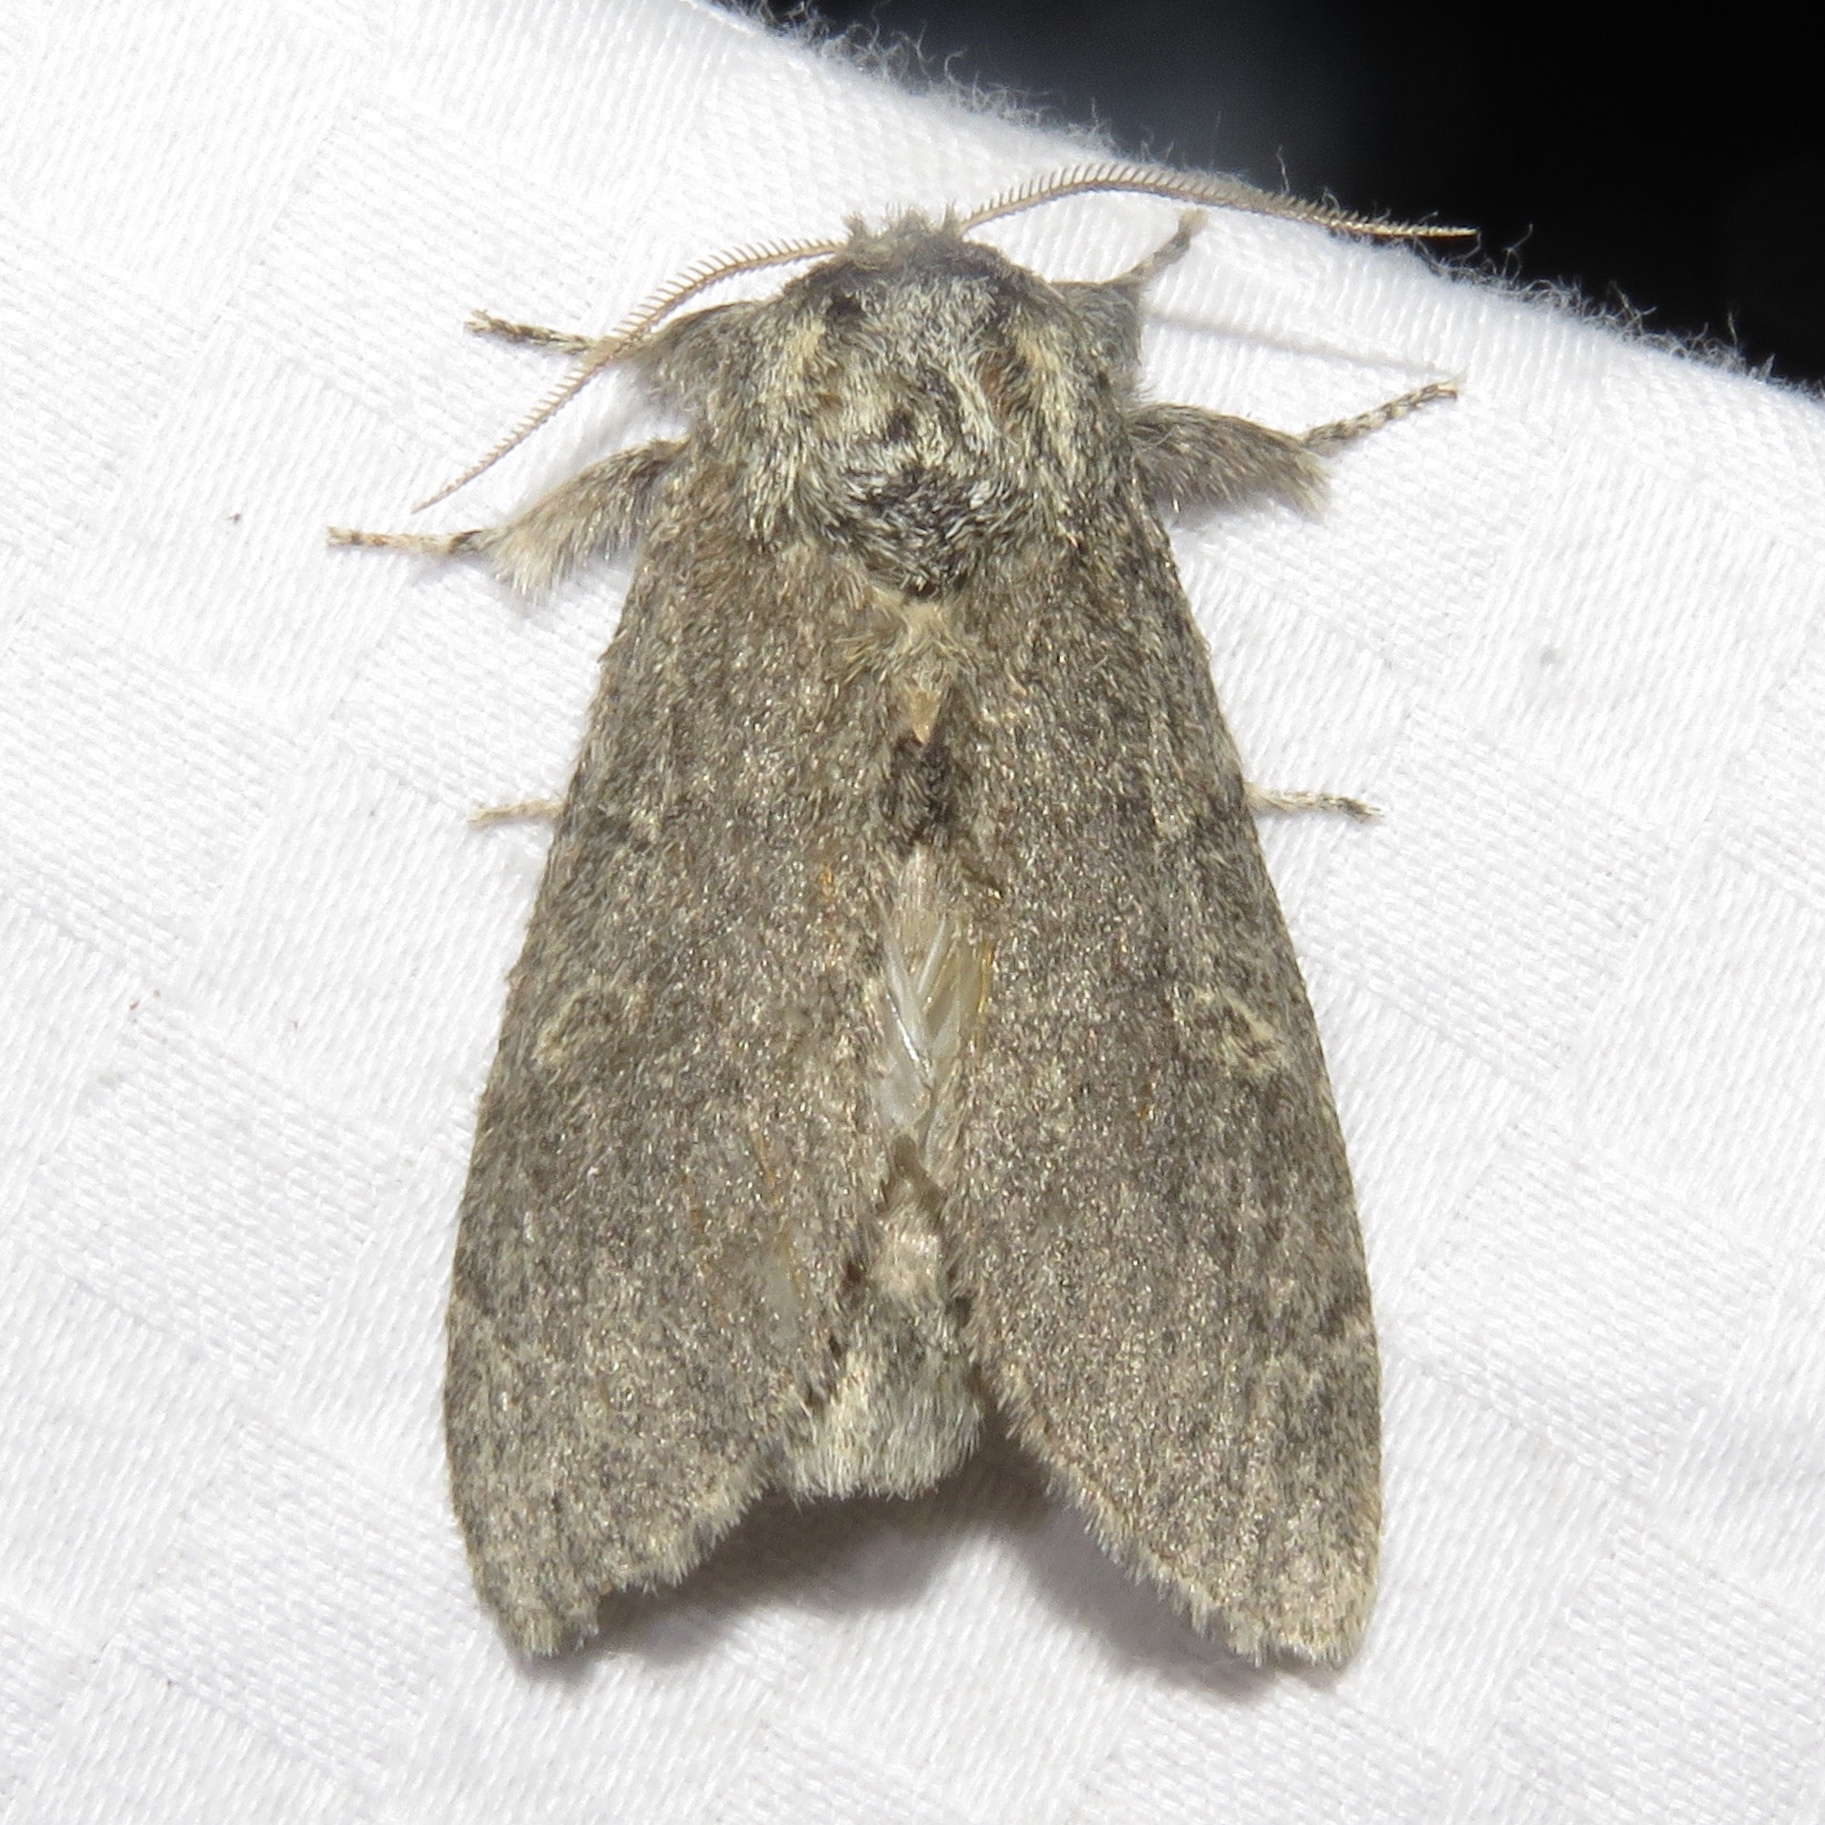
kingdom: Animalia
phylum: Arthropoda
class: Insecta
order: Lepidoptera
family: Notodontidae
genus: Notodonta
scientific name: Notodonta torva
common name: Large dark prominent
